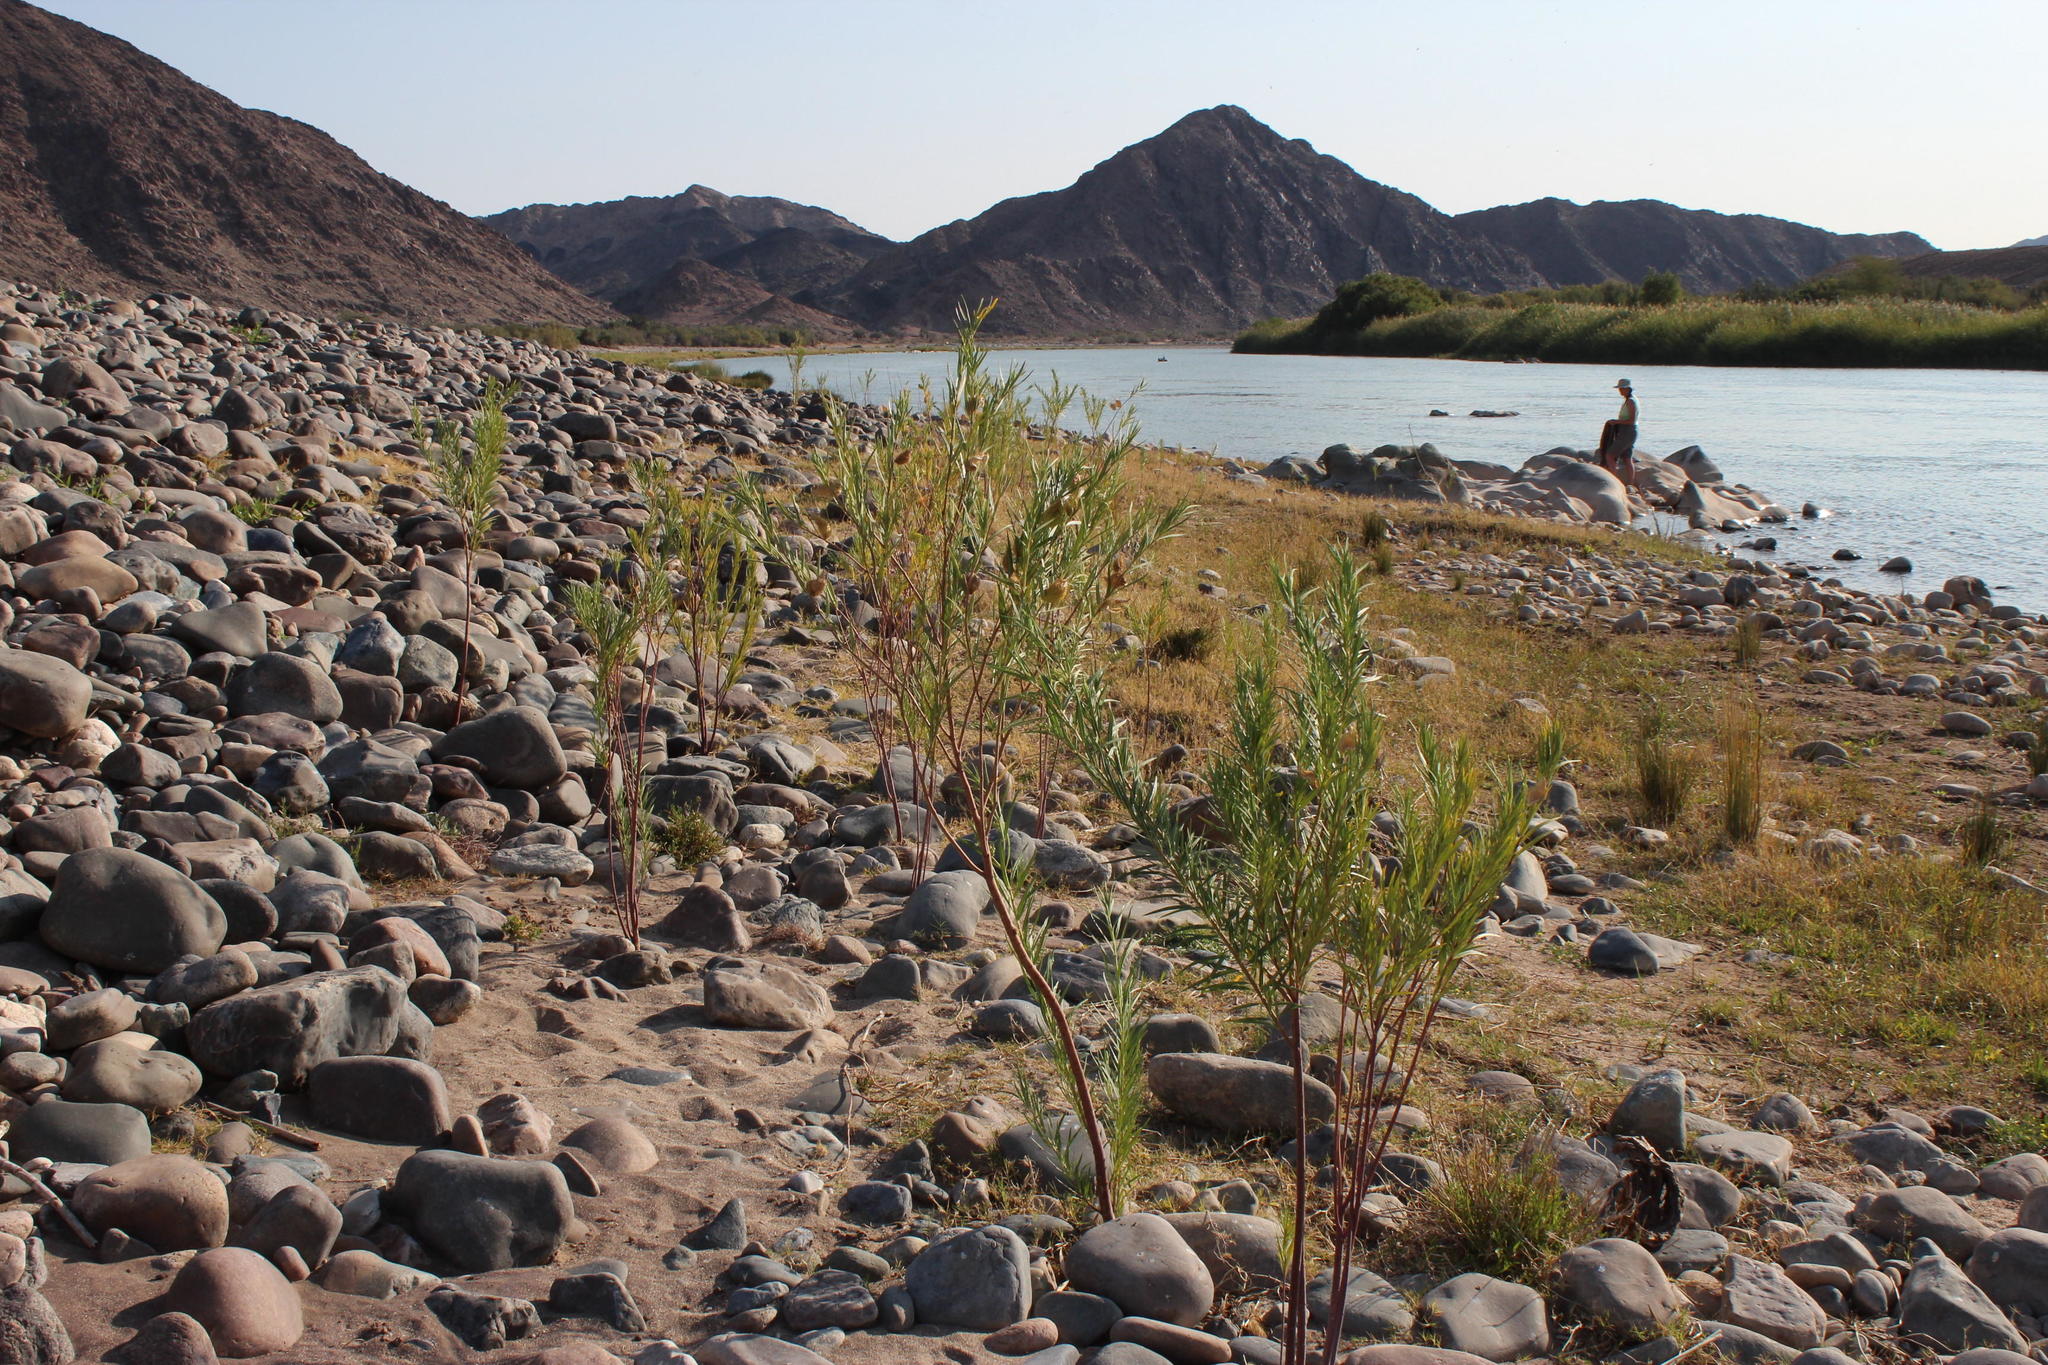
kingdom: Plantae
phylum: Tracheophyta
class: Magnoliopsida
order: Gentianales
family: Apocynaceae
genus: Gomphocarpus
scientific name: Gomphocarpus fruticosus
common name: Milkweed
